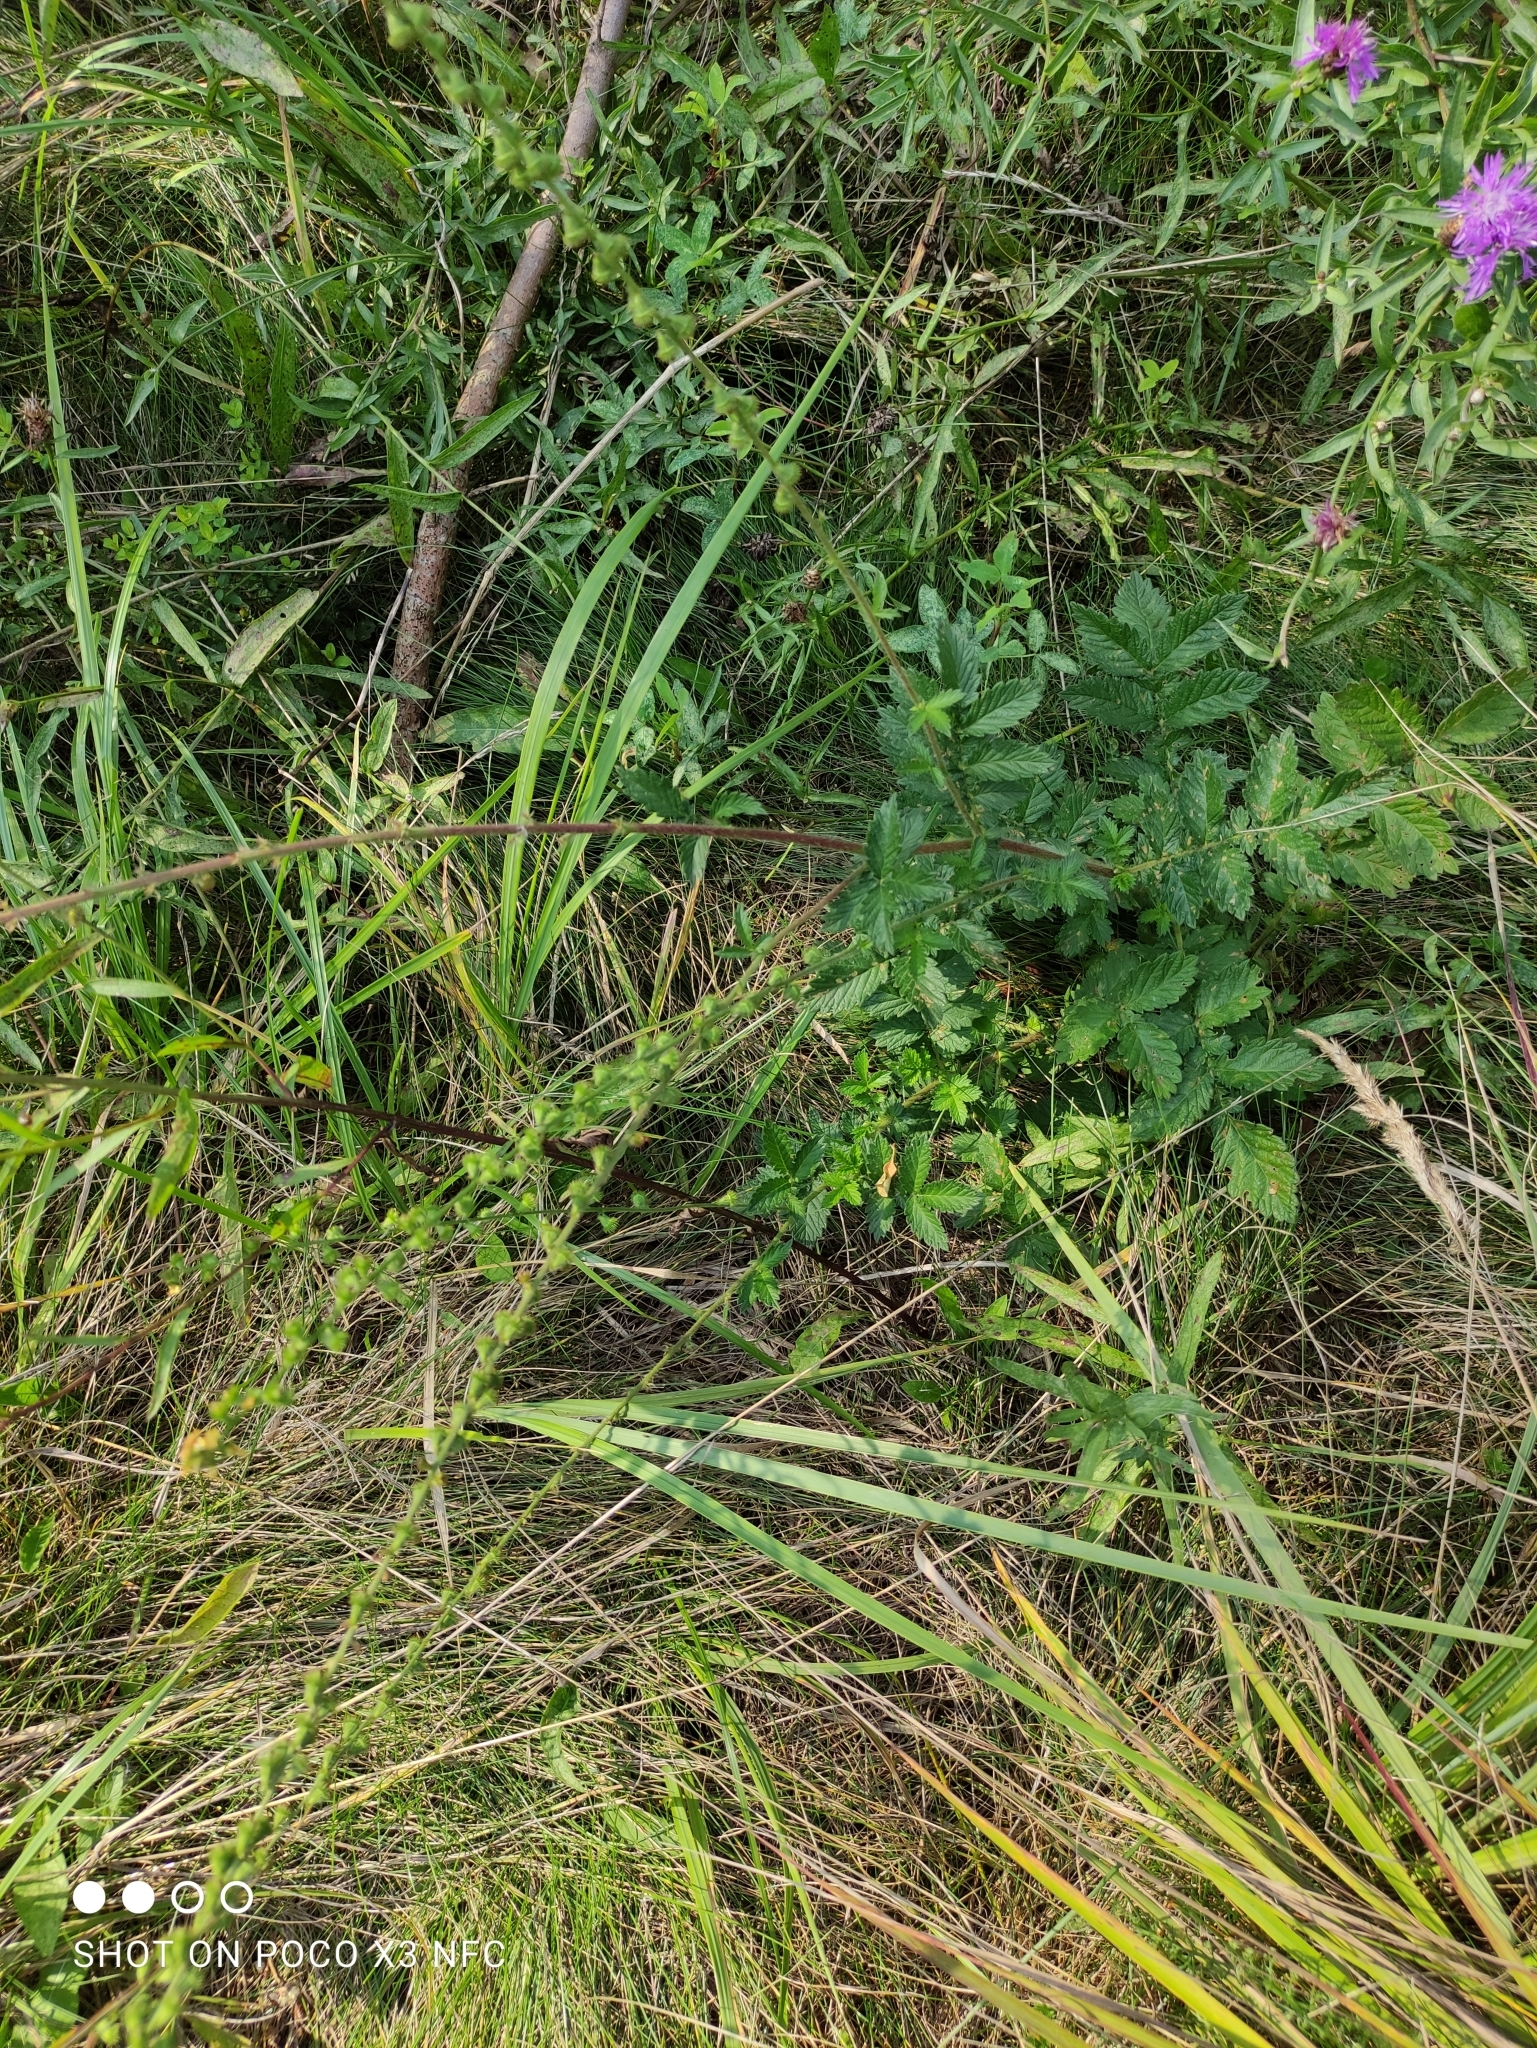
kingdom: Plantae
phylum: Tracheophyta
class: Magnoliopsida
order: Rosales
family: Rosaceae
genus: Agrimonia
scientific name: Agrimonia eupatoria
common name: Agrimony
